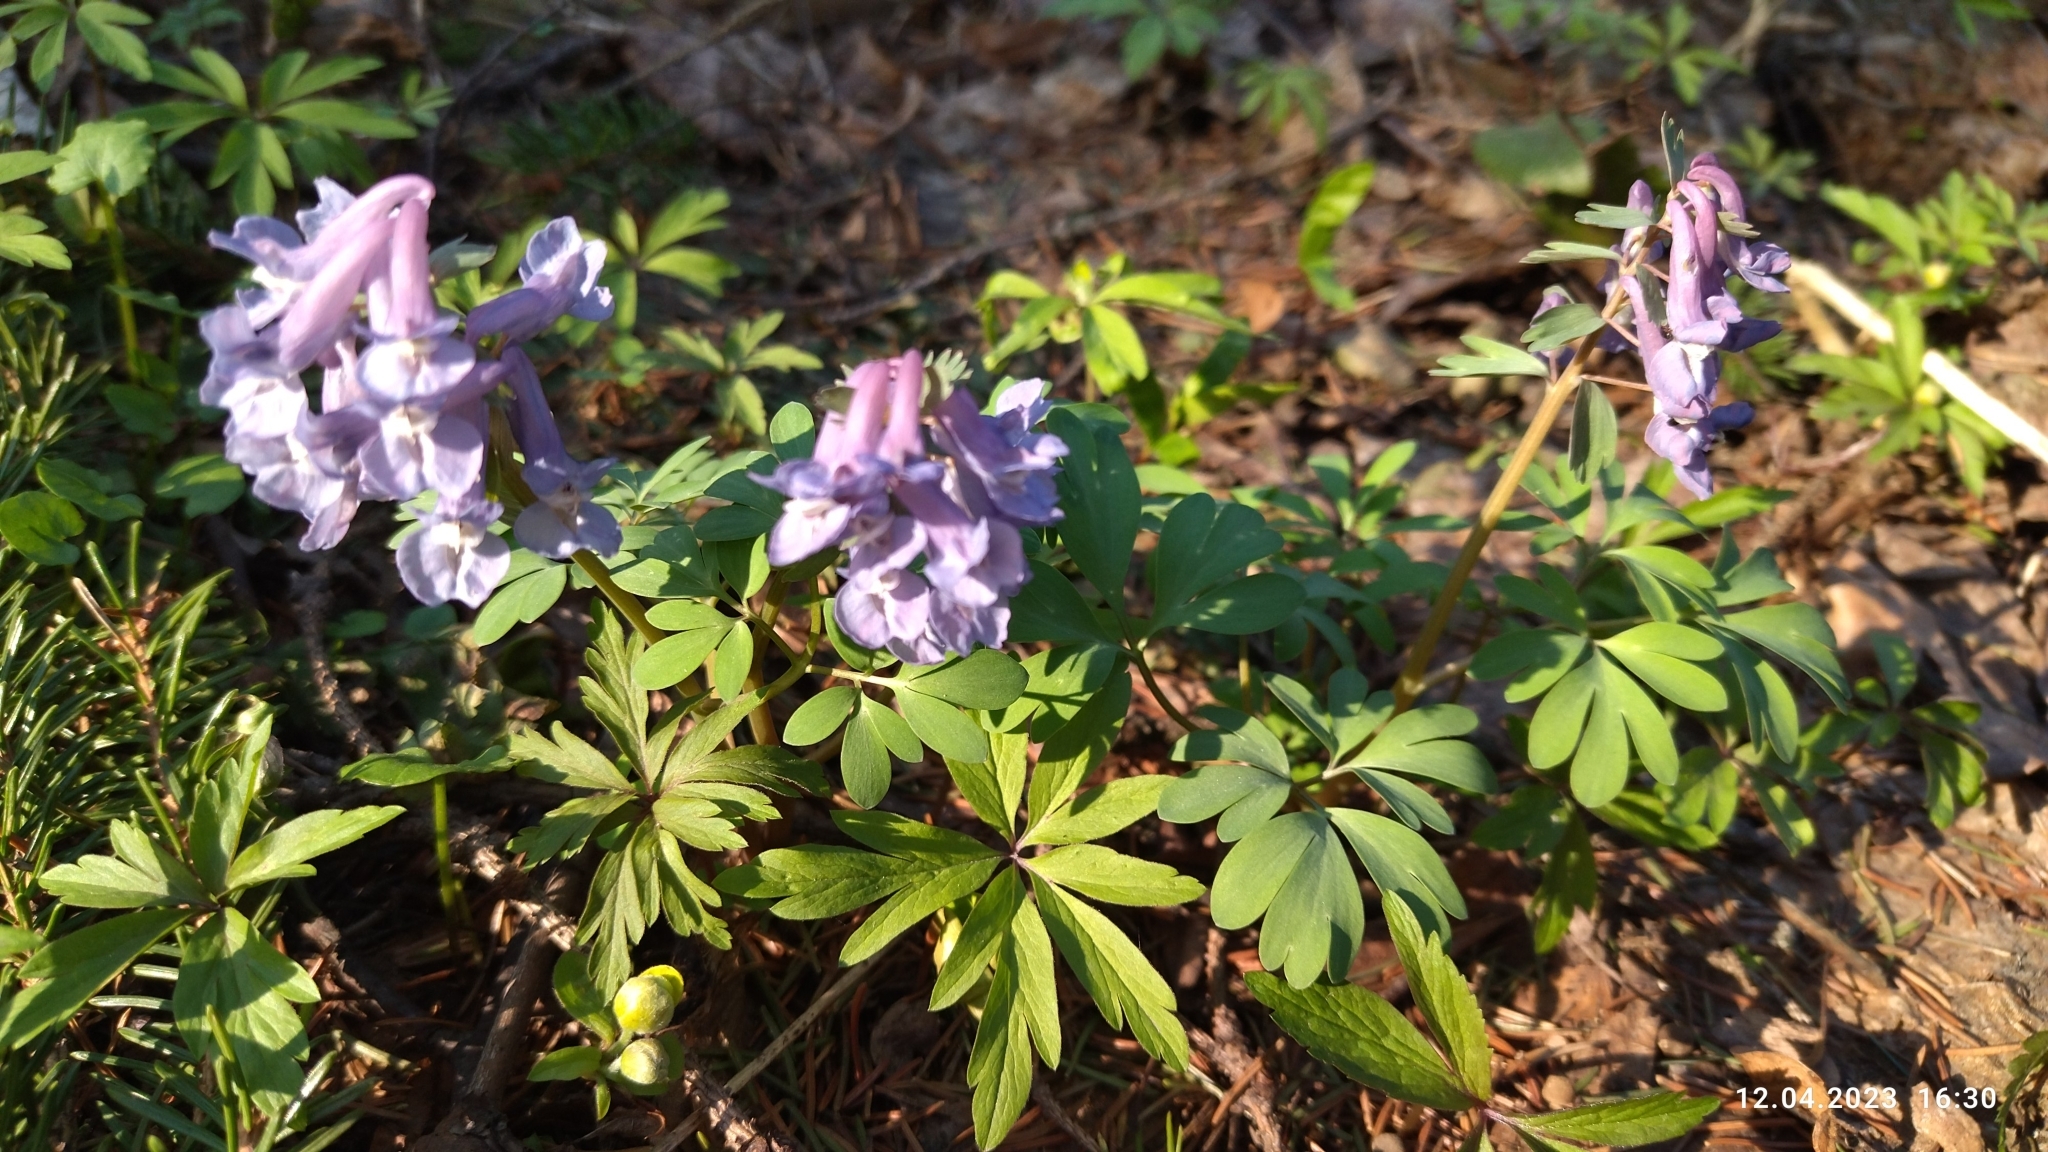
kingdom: Plantae
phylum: Tracheophyta
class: Magnoliopsida
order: Ranunculales
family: Papaveraceae
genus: Corydalis
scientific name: Corydalis solida
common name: Bird-in-a-bush
